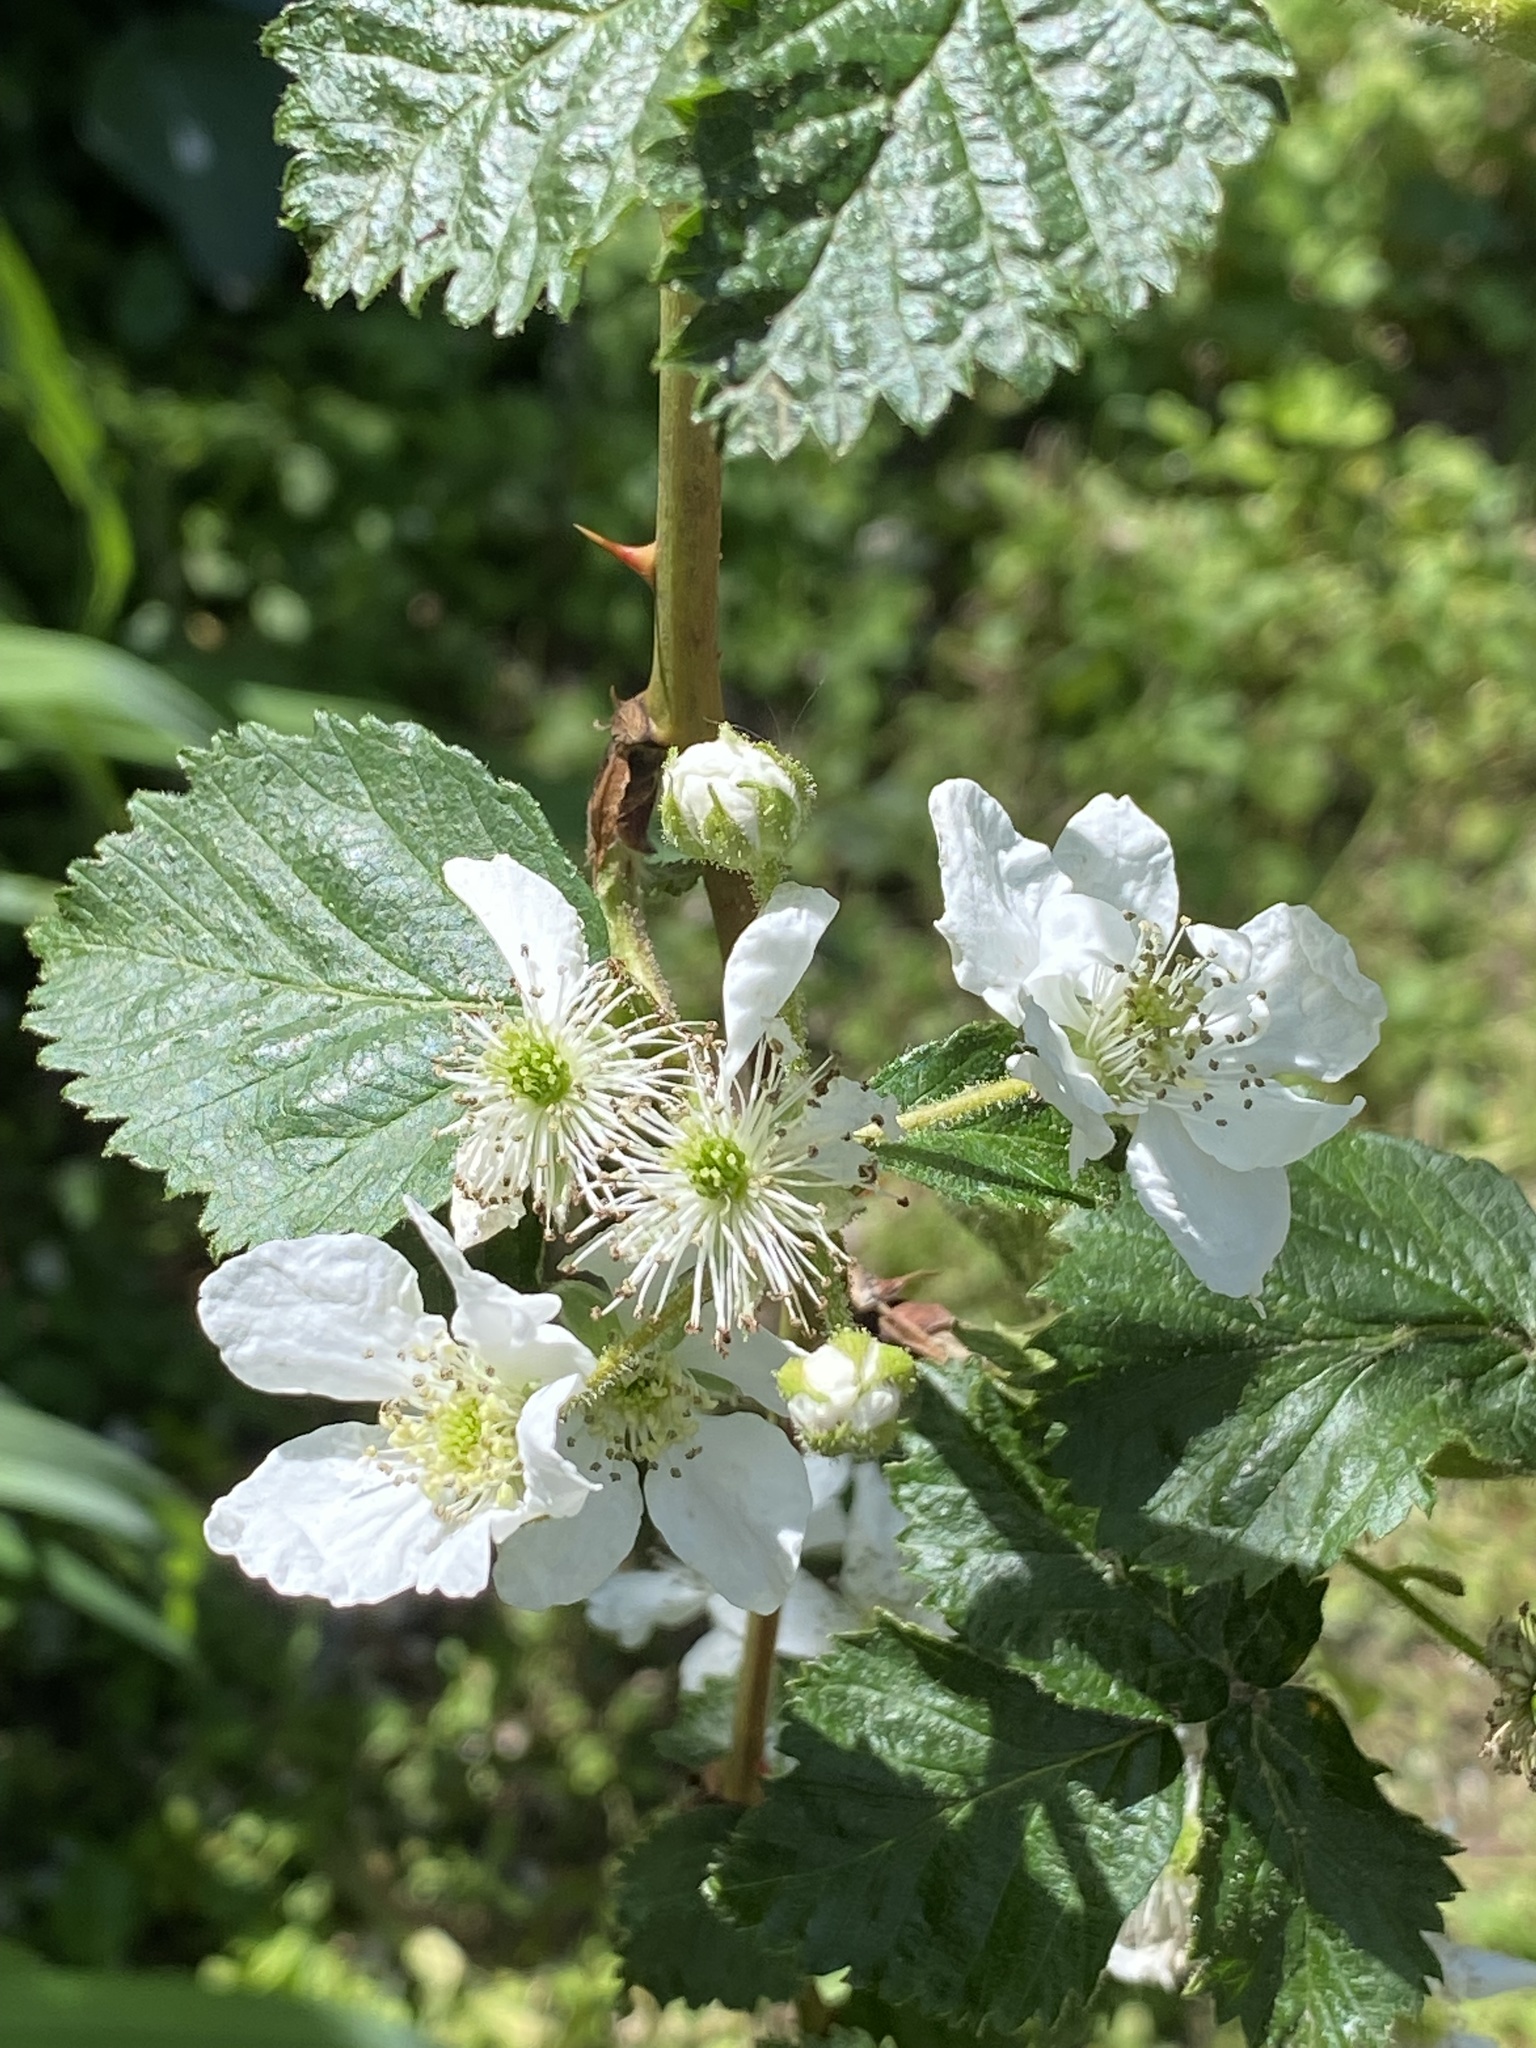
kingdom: Plantae
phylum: Tracheophyta
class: Magnoliopsida
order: Rosales
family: Rosaceae
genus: Rubus
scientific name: Rubus allegheniensis
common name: Allegheny blackberry
